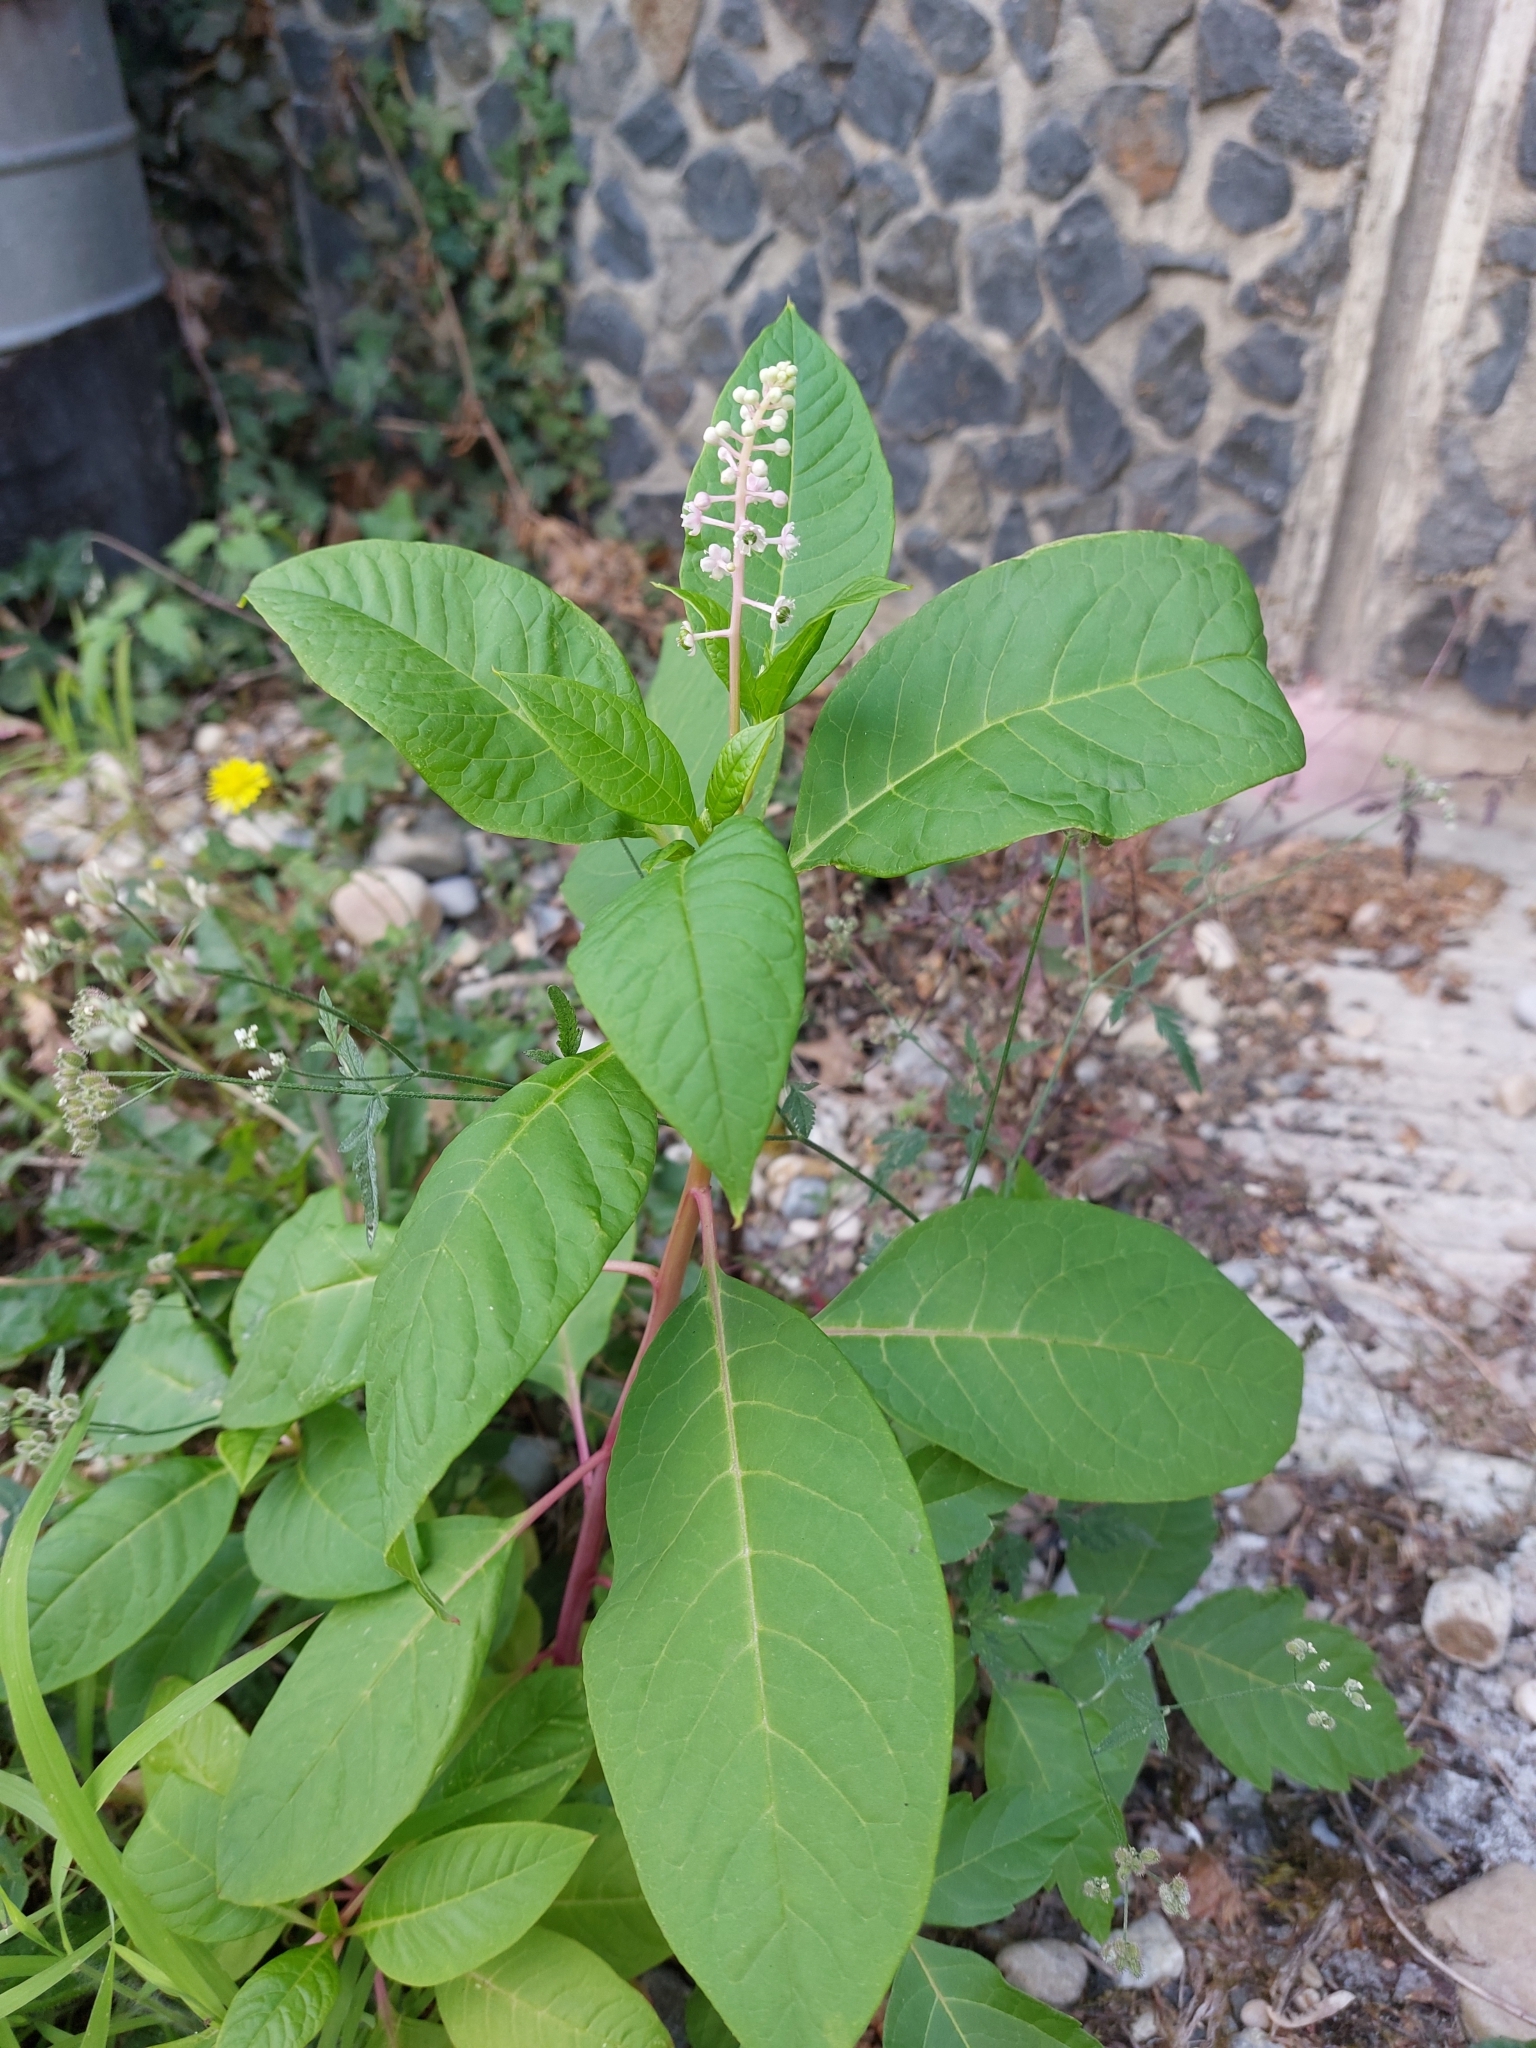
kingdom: Plantae
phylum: Tracheophyta
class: Magnoliopsida
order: Caryophyllales
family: Phytolaccaceae
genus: Phytolacca
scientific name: Phytolacca americana
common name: American pokeweed
